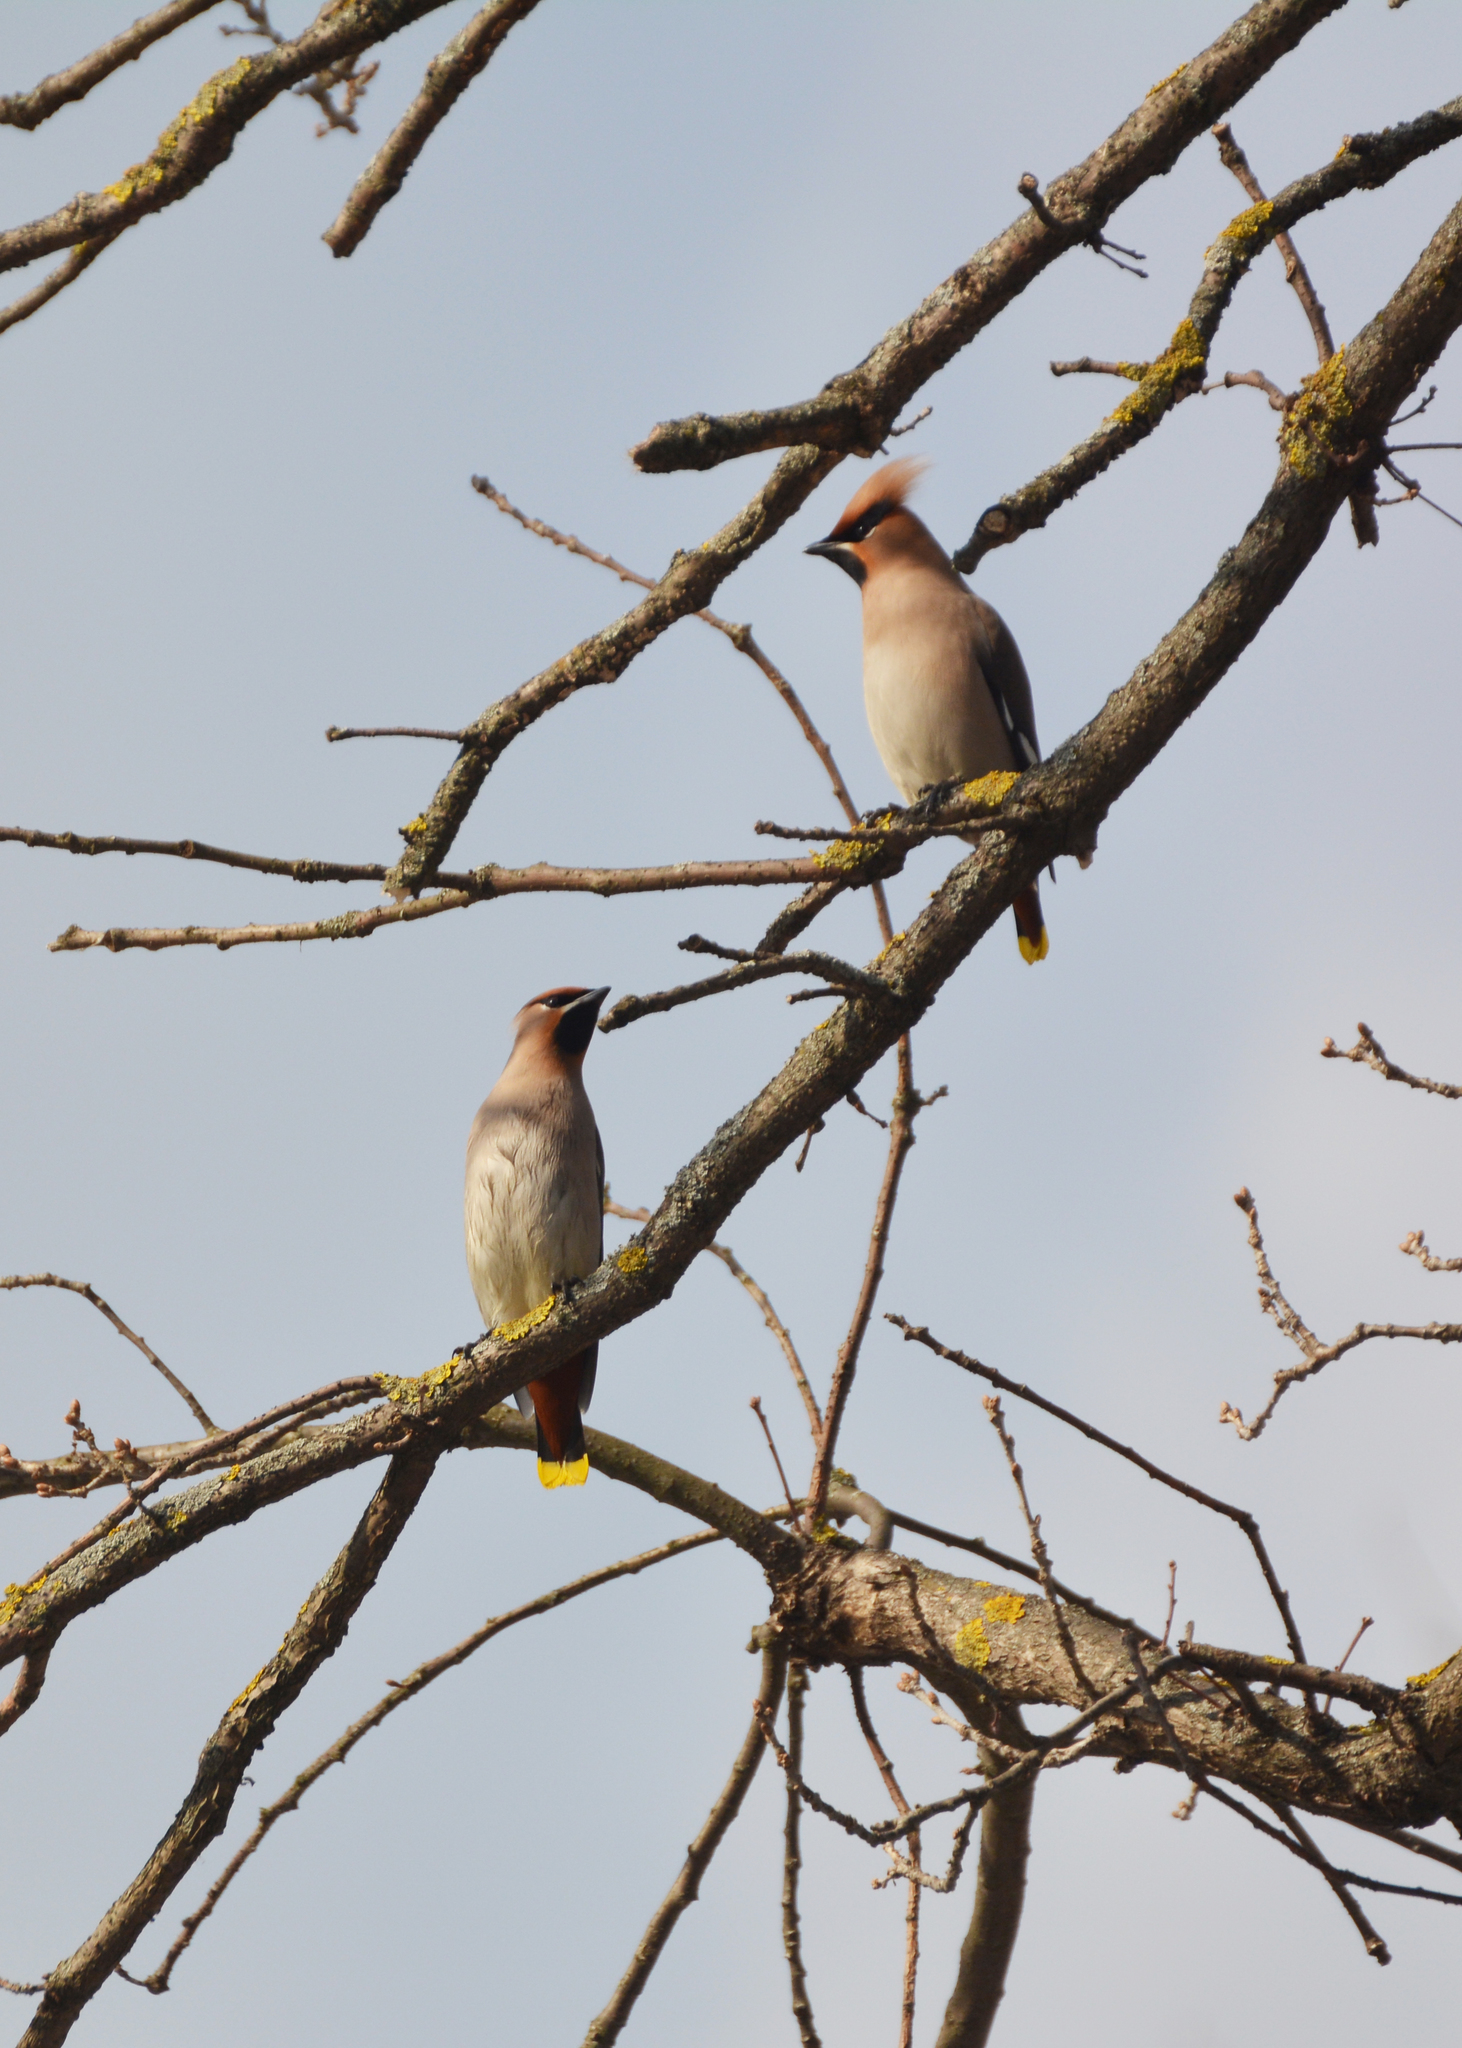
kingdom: Animalia
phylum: Chordata
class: Aves
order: Passeriformes
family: Bombycillidae
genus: Bombycilla
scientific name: Bombycilla garrulus
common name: Bohemian waxwing
